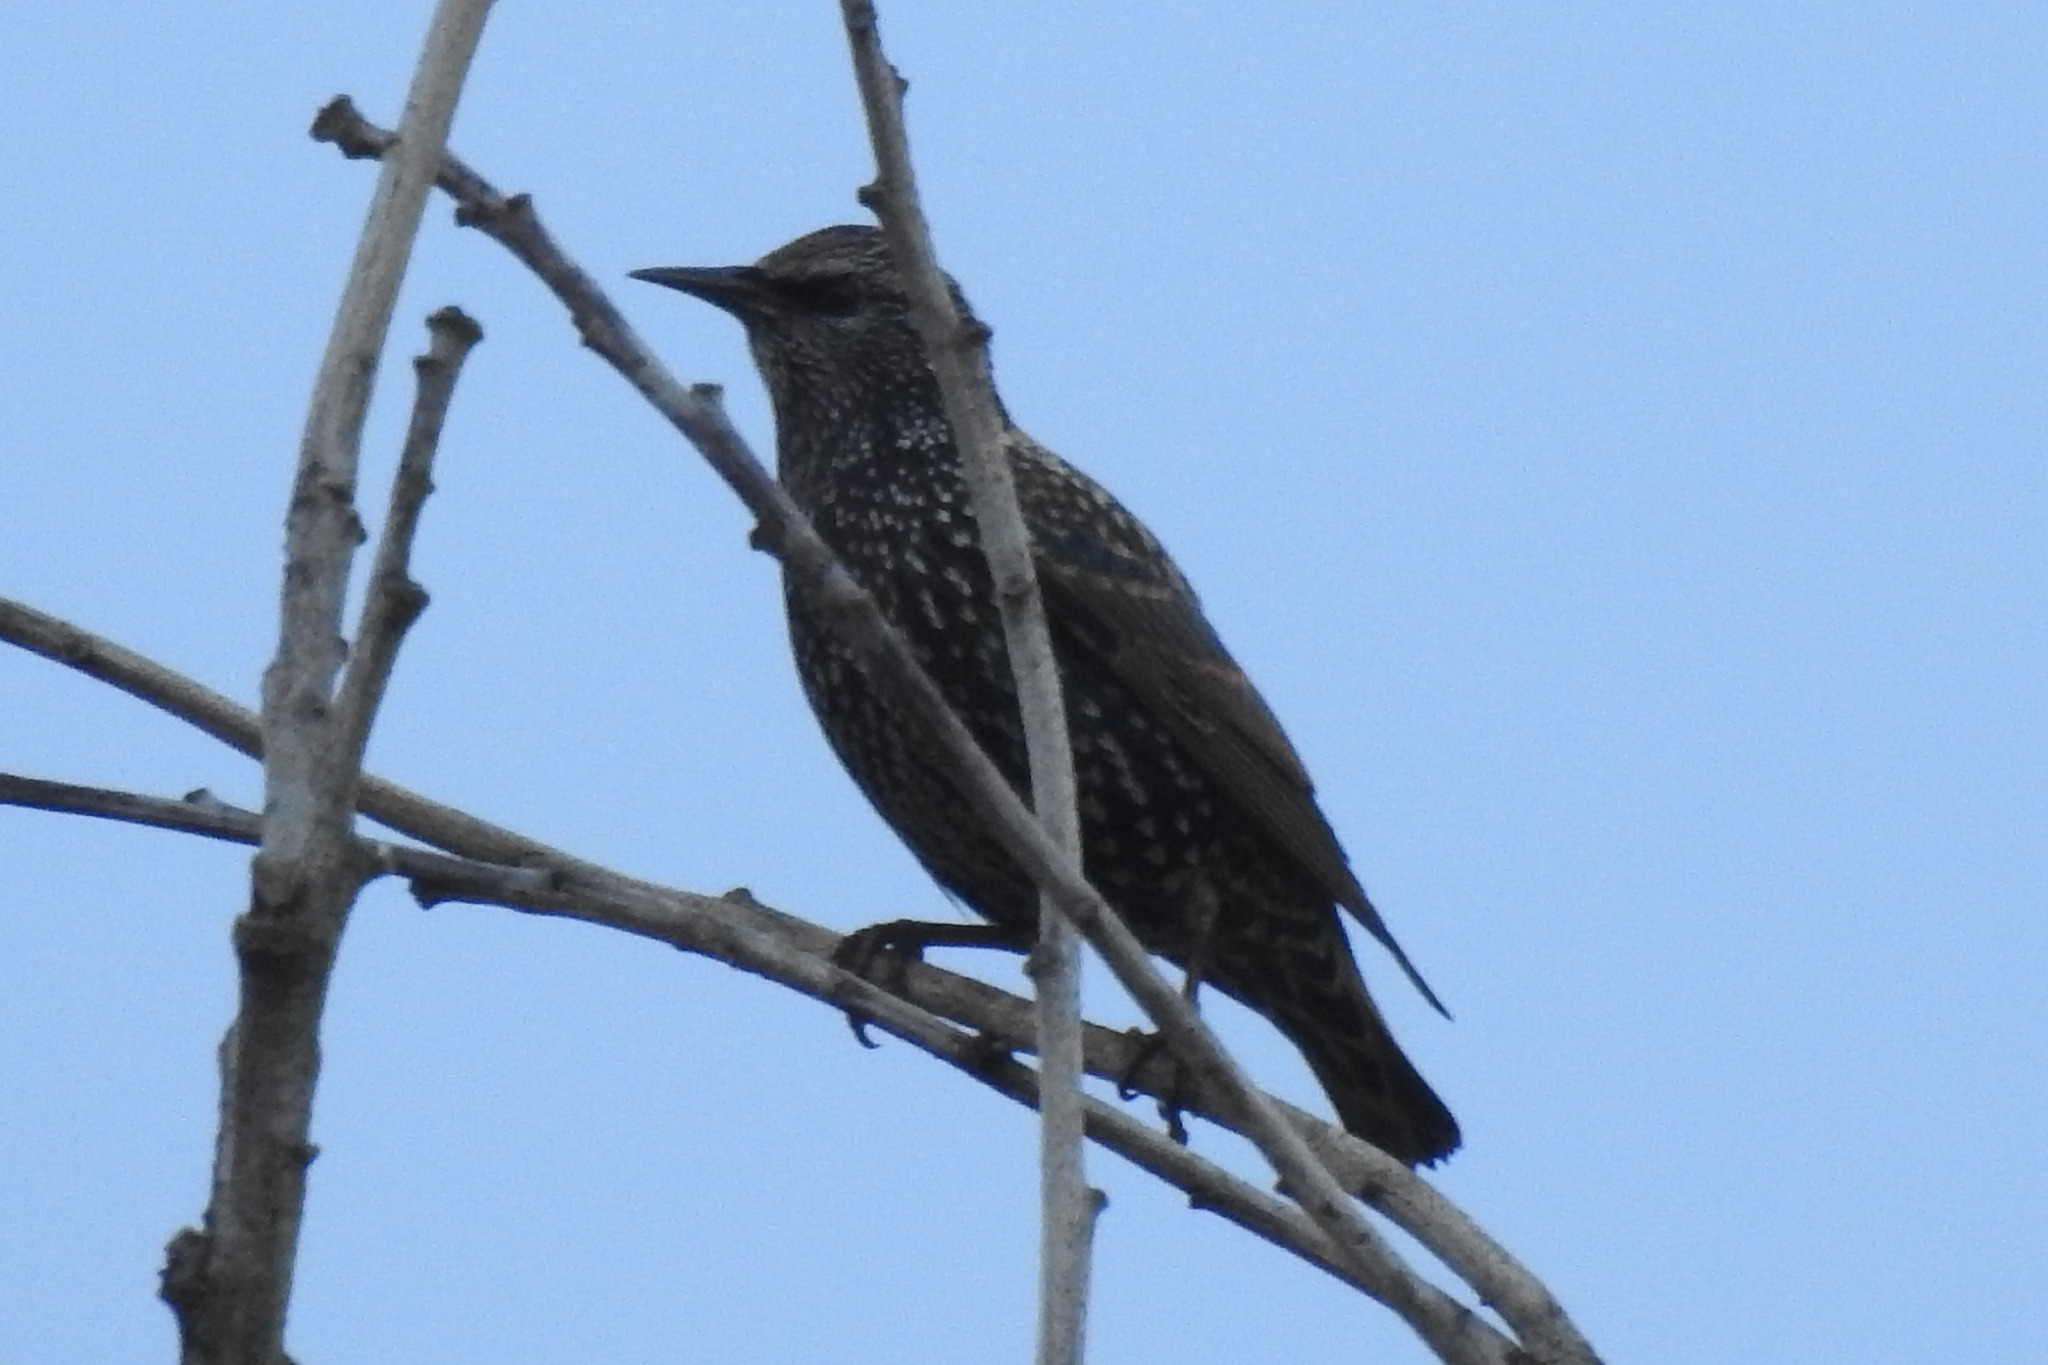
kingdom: Animalia
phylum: Chordata
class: Aves
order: Passeriformes
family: Sturnidae
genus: Sturnus
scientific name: Sturnus vulgaris
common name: Common starling
